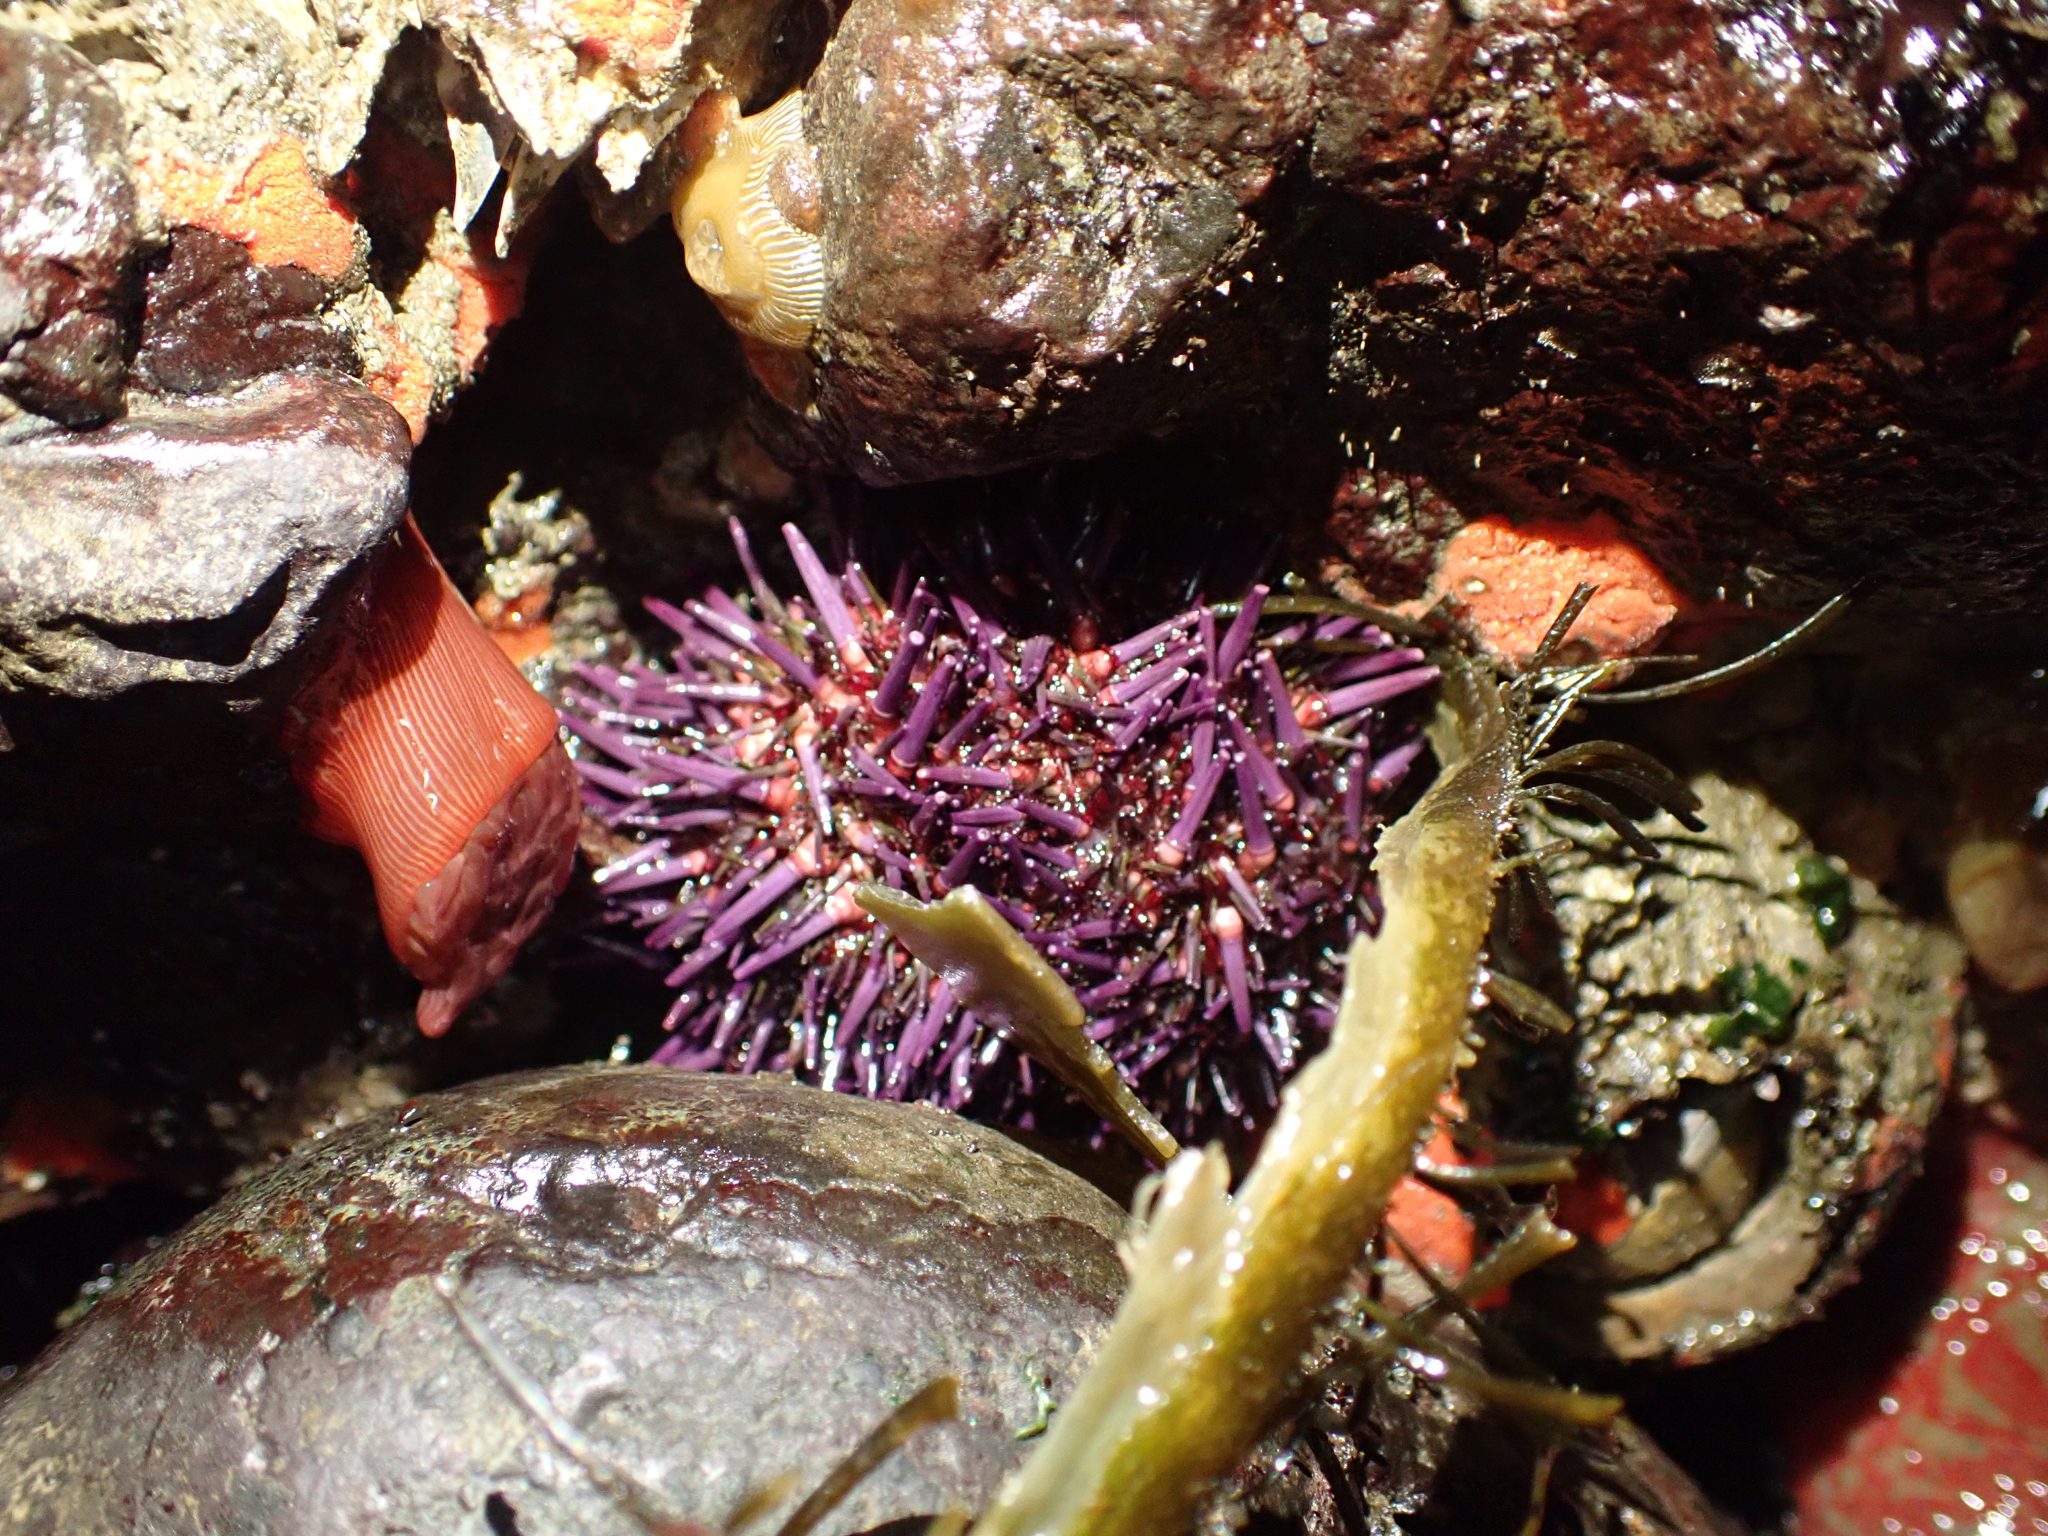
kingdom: Animalia
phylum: Echinodermata
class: Echinoidea
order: Camarodonta
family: Strongylocentrotidae
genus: Strongylocentrotus
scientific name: Strongylocentrotus purpuratus
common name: Purple sea urchin
